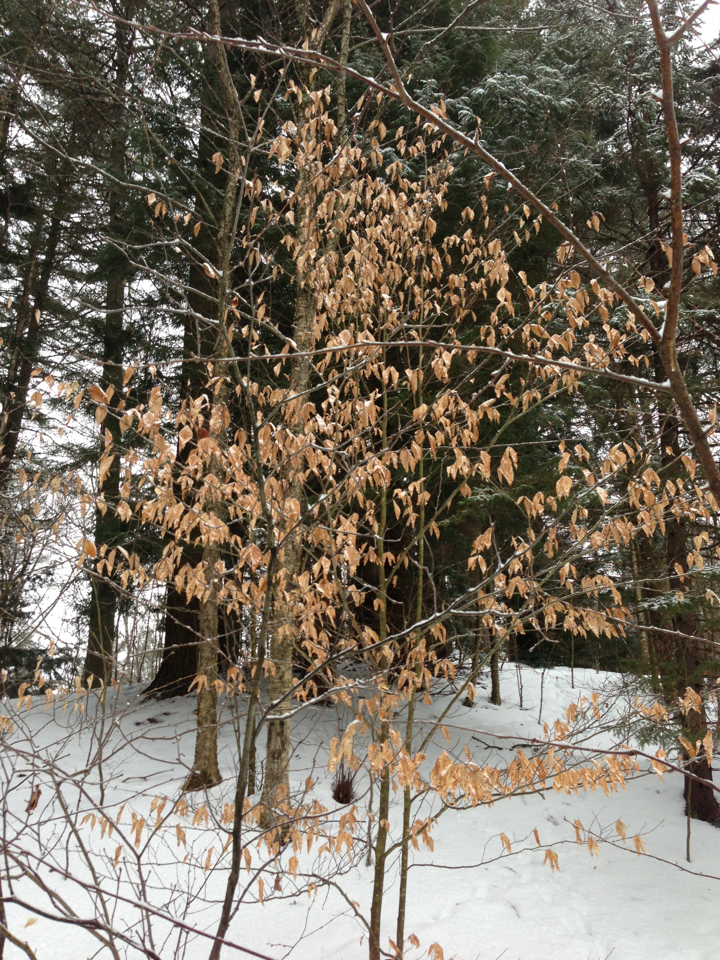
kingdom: Plantae
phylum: Tracheophyta
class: Magnoliopsida
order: Fagales
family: Fagaceae
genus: Fagus
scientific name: Fagus grandifolia
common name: American beech
